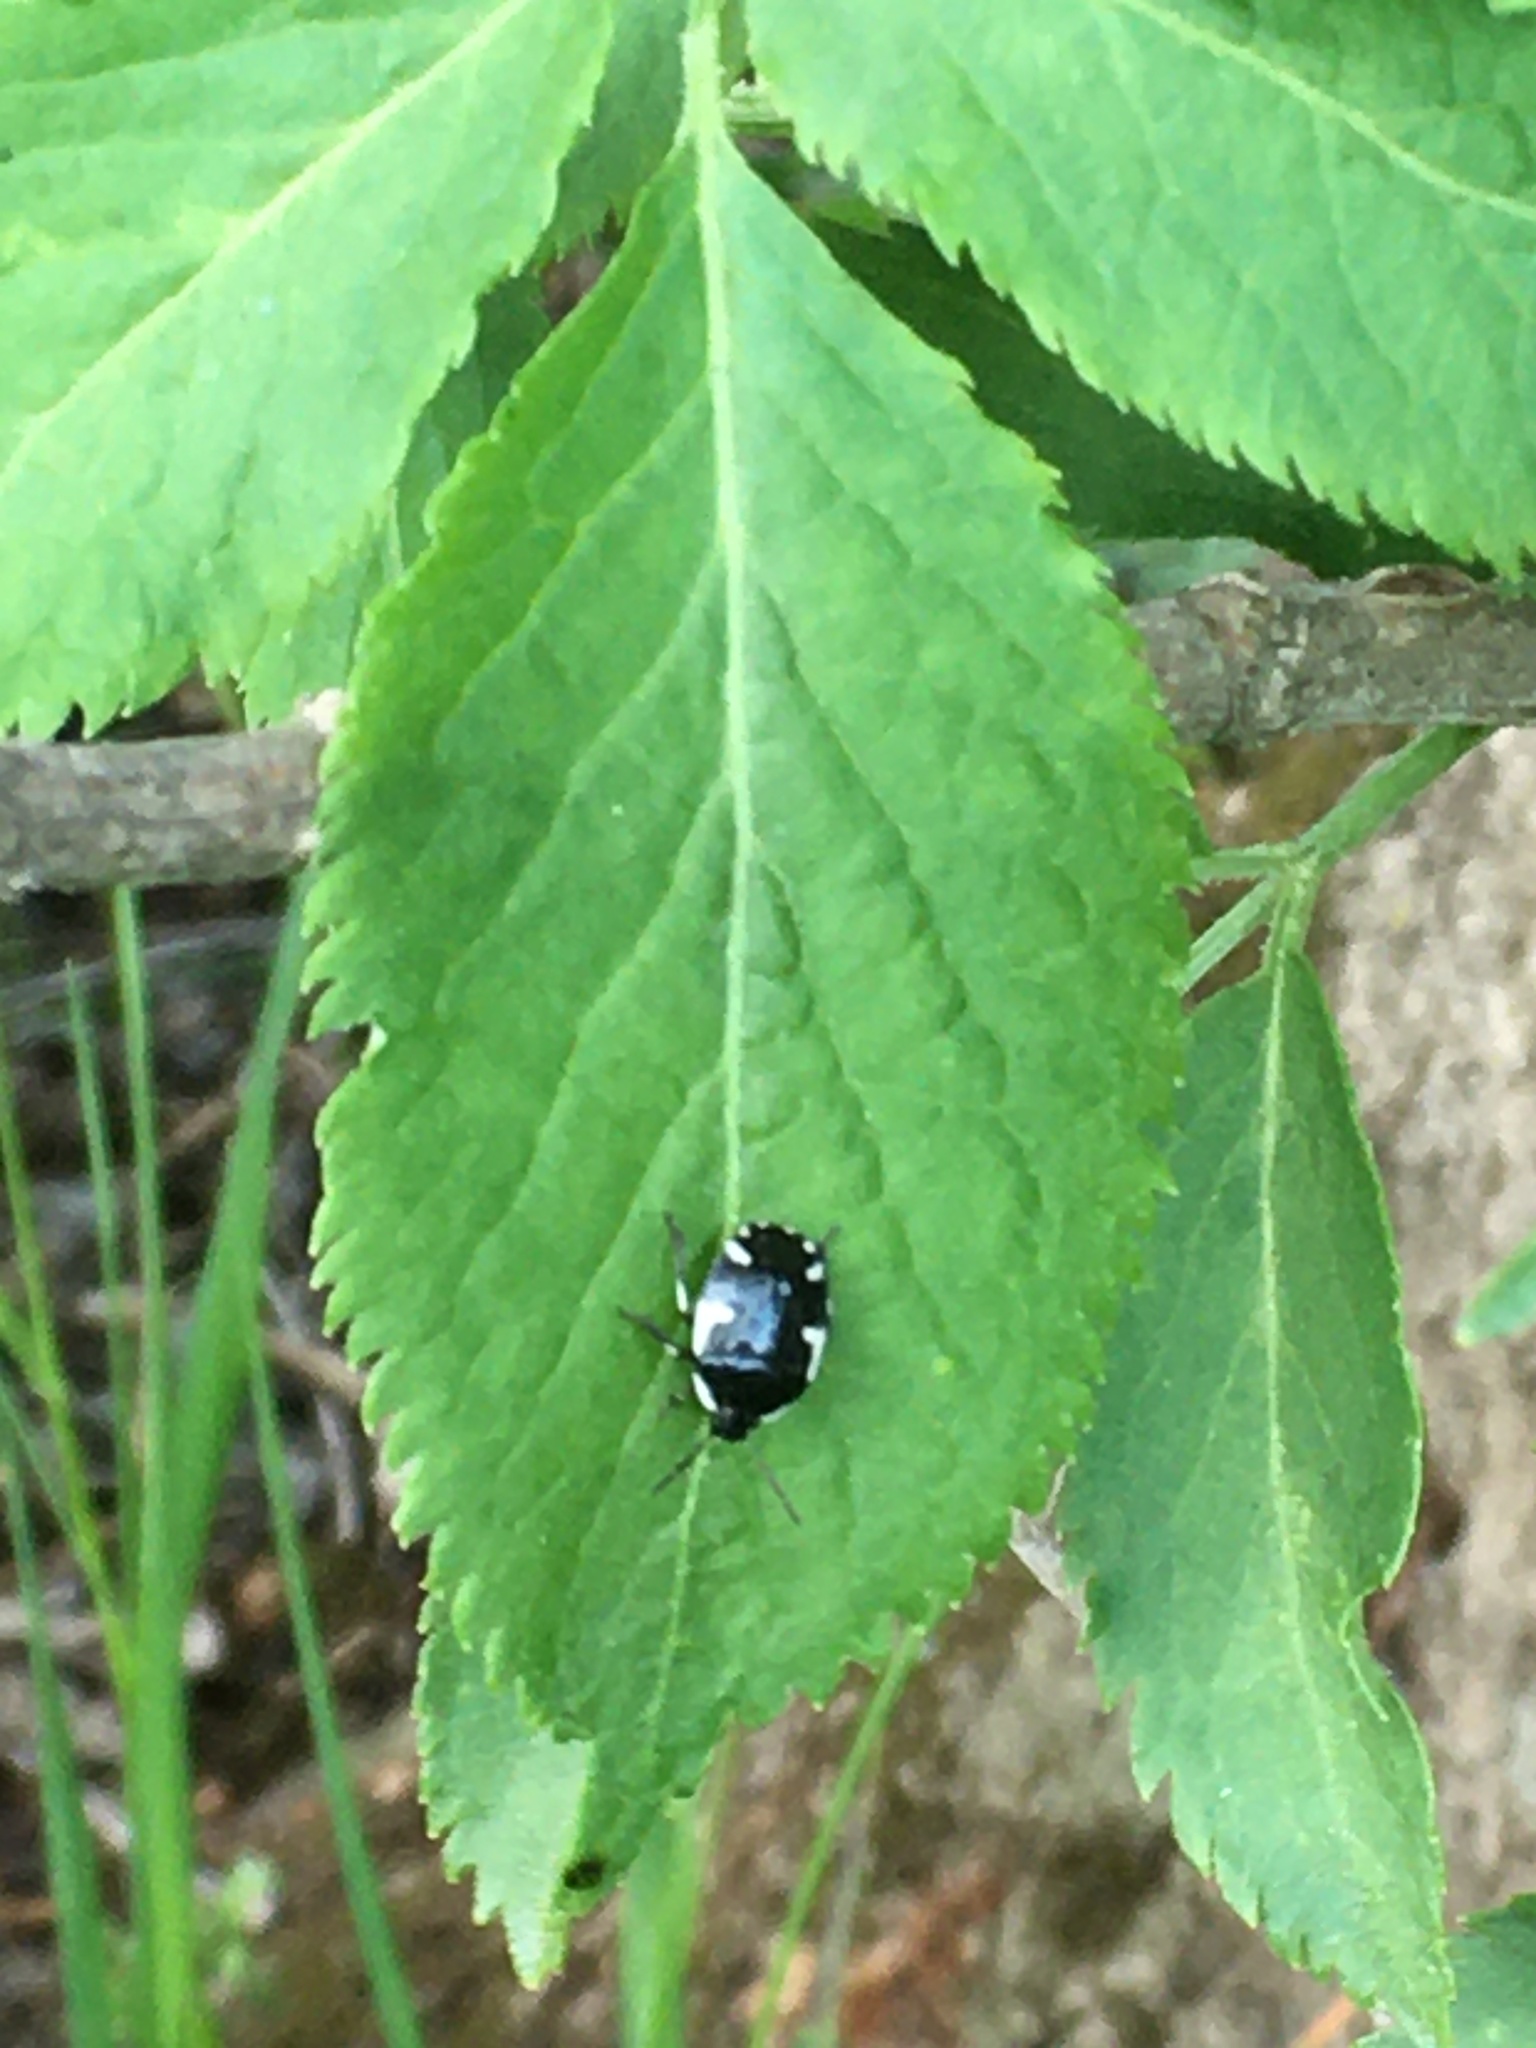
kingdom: Animalia
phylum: Arthropoda
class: Insecta
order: Hemiptera
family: Cydnidae
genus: Tritomegas
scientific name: Tritomegas sexmaculatus
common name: Rambur's pied shieldbug
